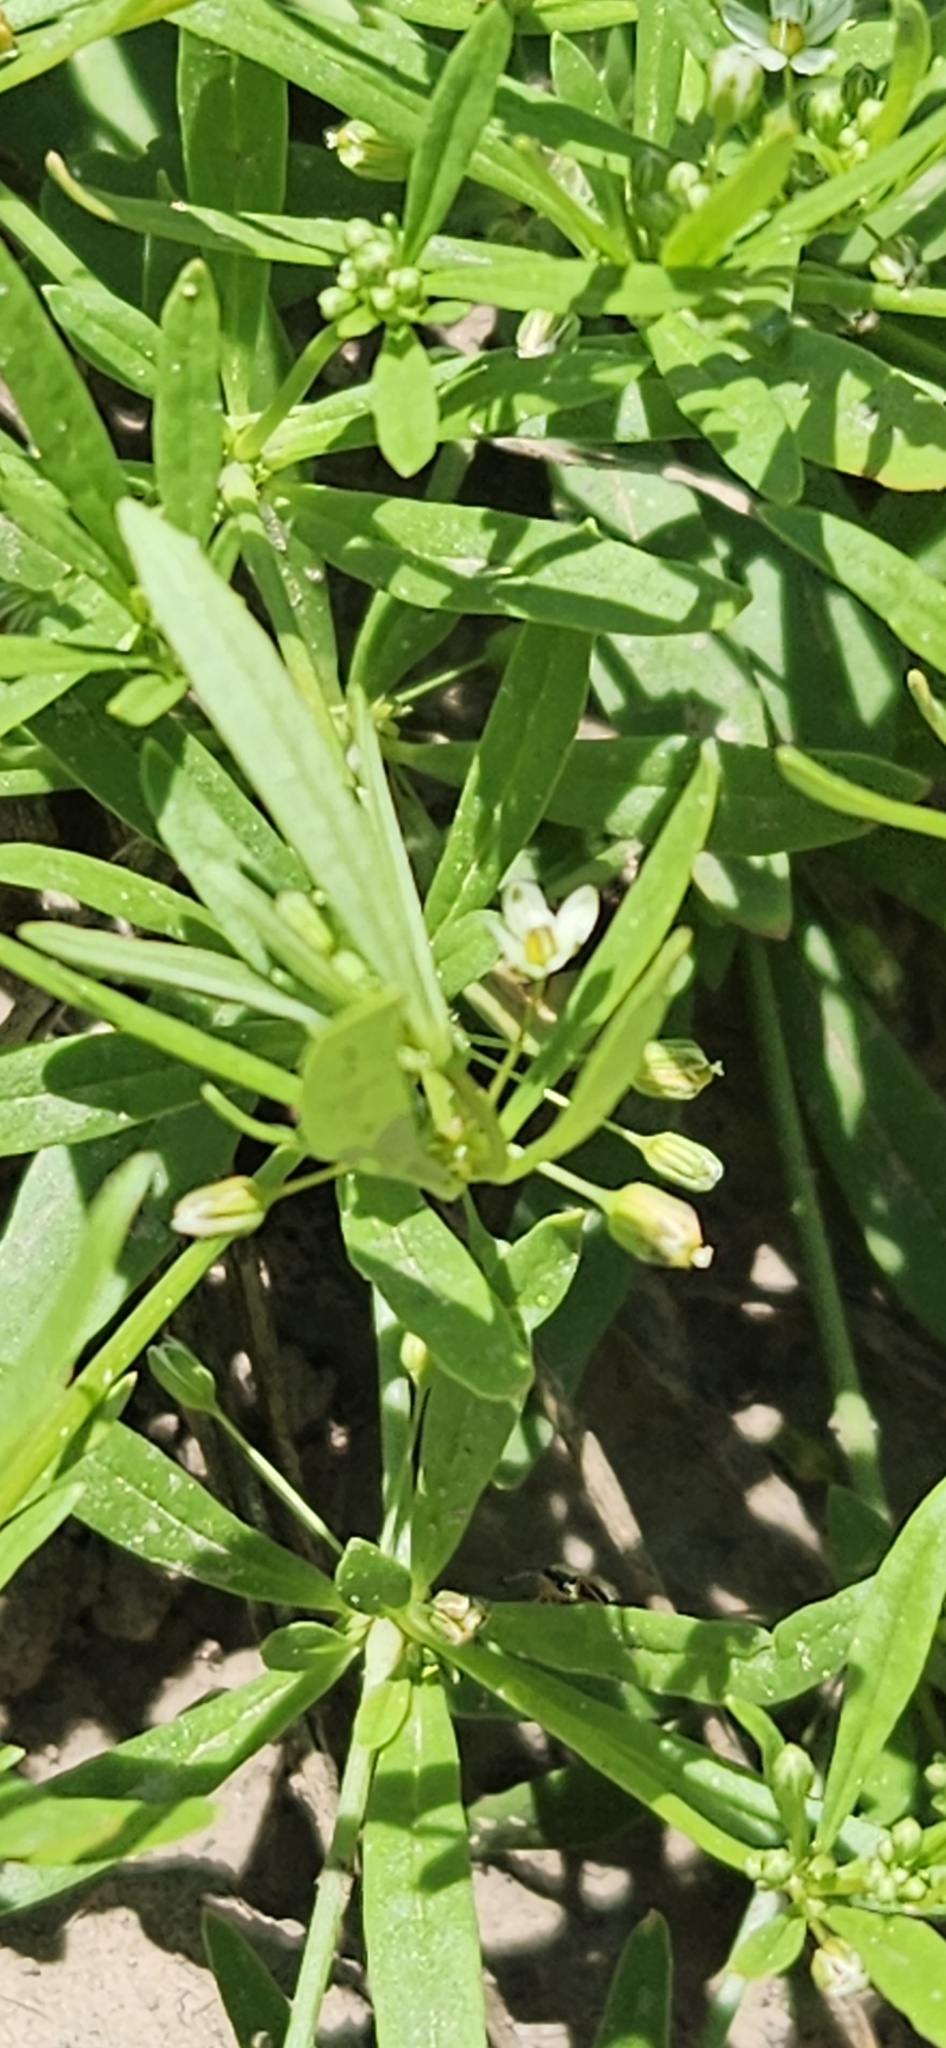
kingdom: Plantae
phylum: Tracheophyta
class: Magnoliopsida
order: Caryophyllales
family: Molluginaceae
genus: Mollugo
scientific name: Mollugo verticillata
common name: Green carpetweed
